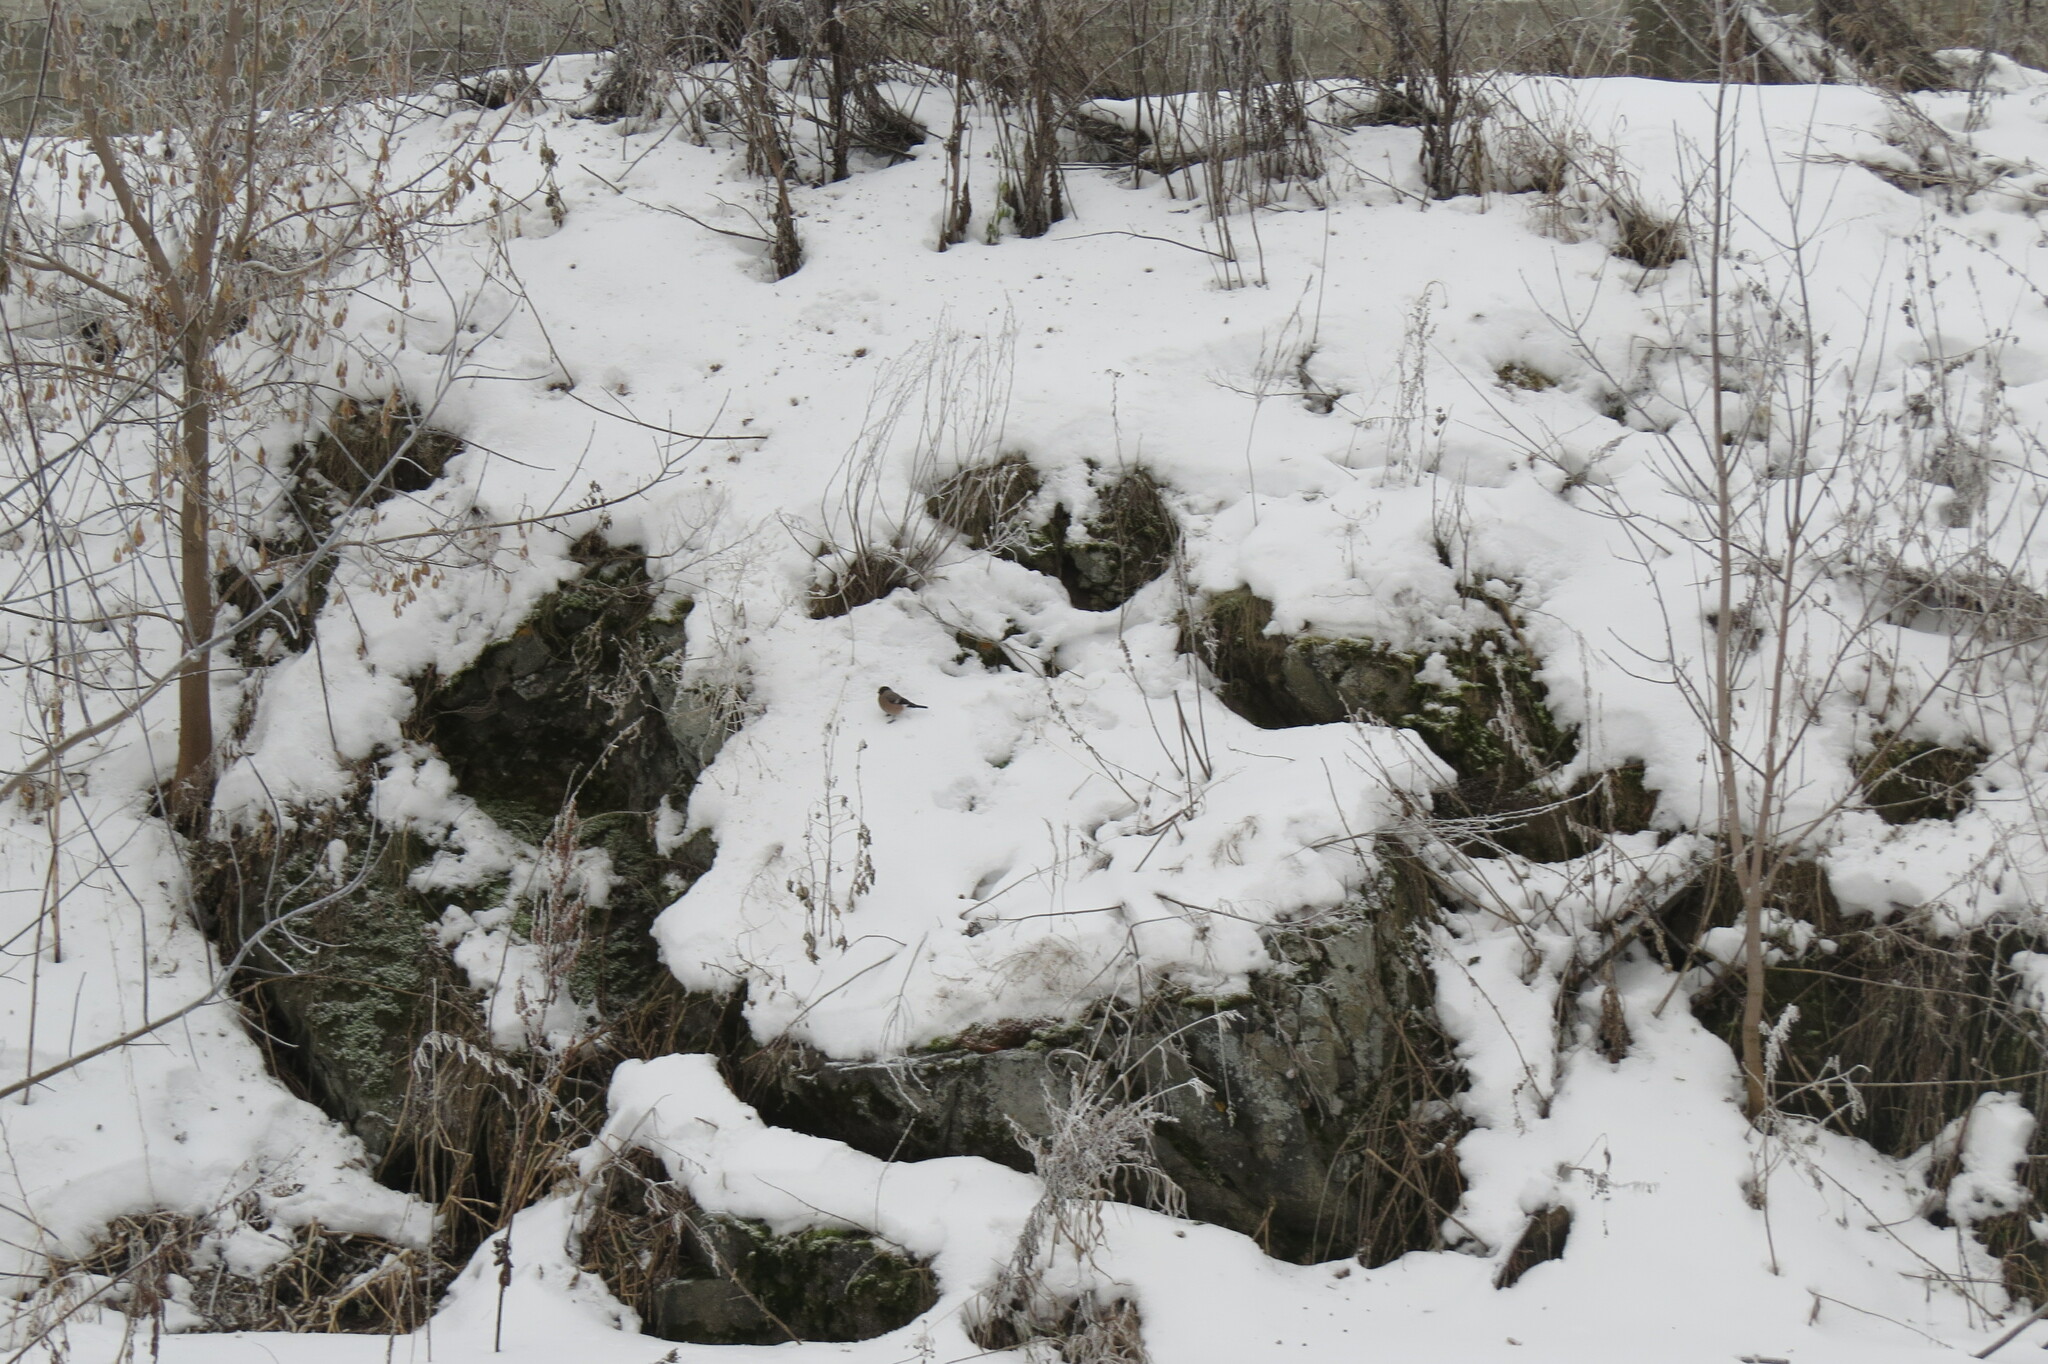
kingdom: Animalia
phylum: Chordata
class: Aves
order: Passeriformes
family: Fringillidae
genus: Pyrrhula
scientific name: Pyrrhula pyrrhula
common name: Eurasian bullfinch
